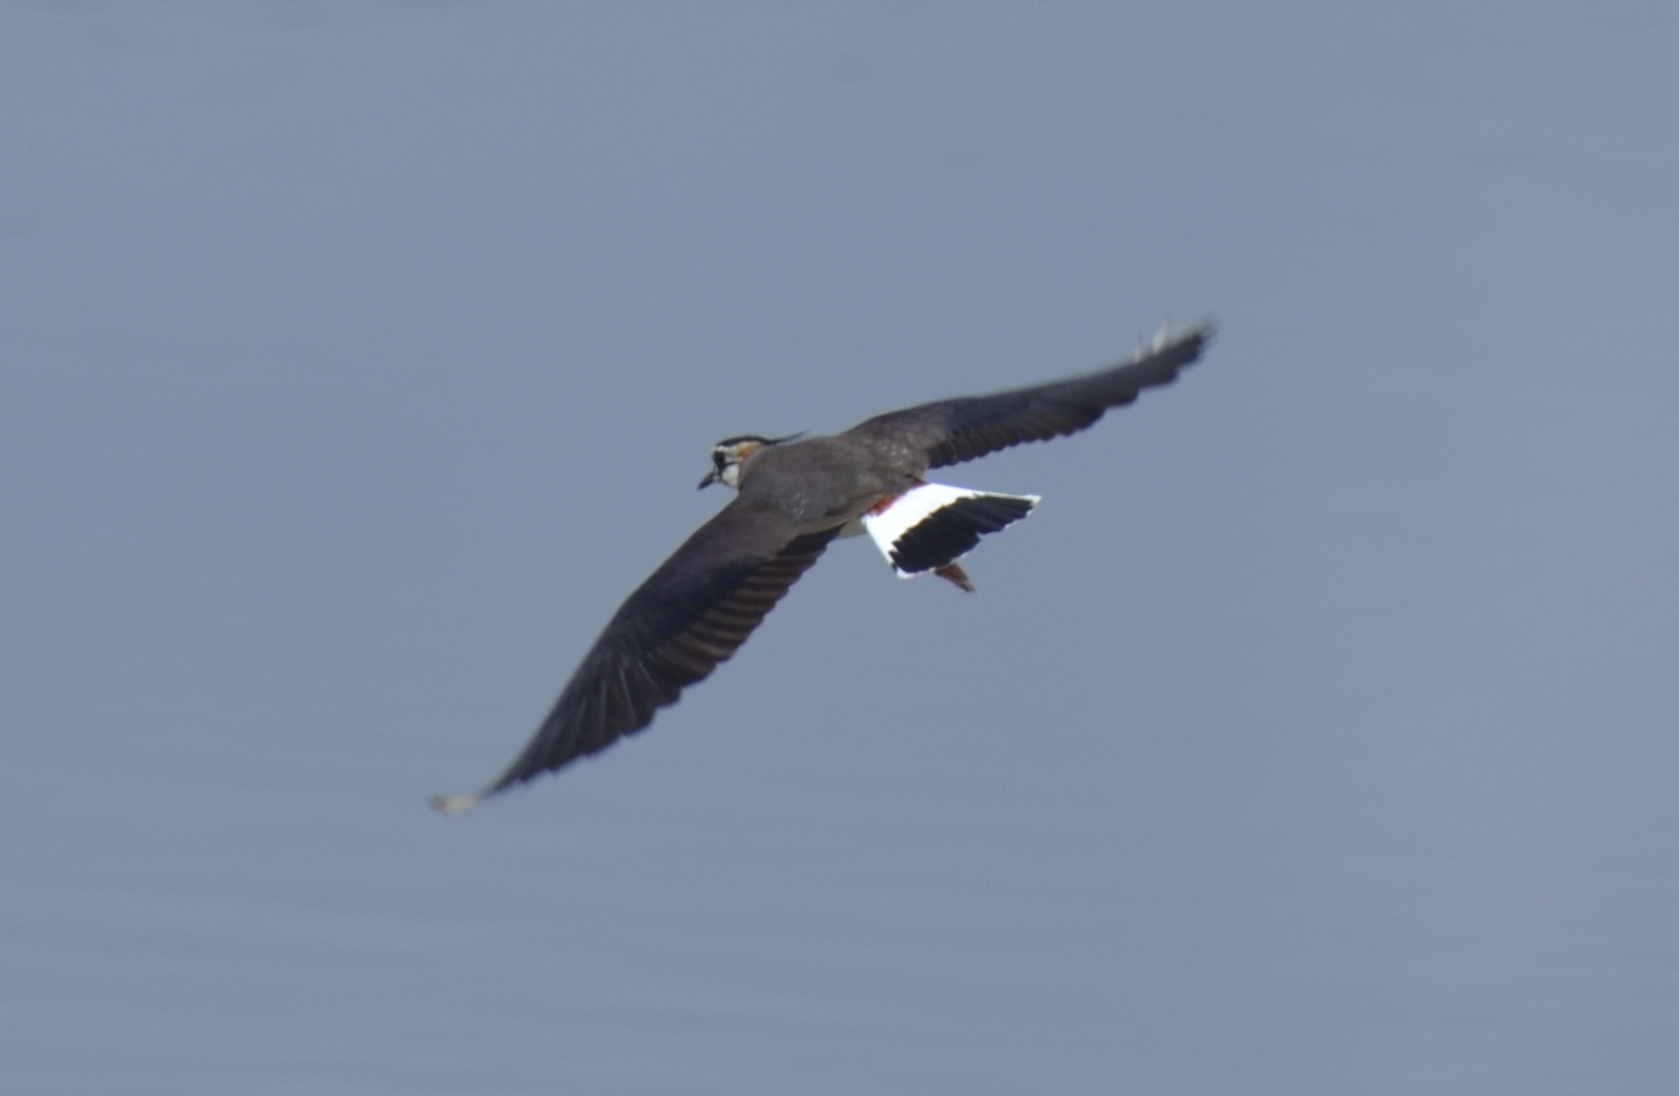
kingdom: Animalia
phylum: Chordata
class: Aves
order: Charadriiformes
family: Charadriidae
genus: Vanellus
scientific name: Vanellus vanellus
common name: Northern lapwing
